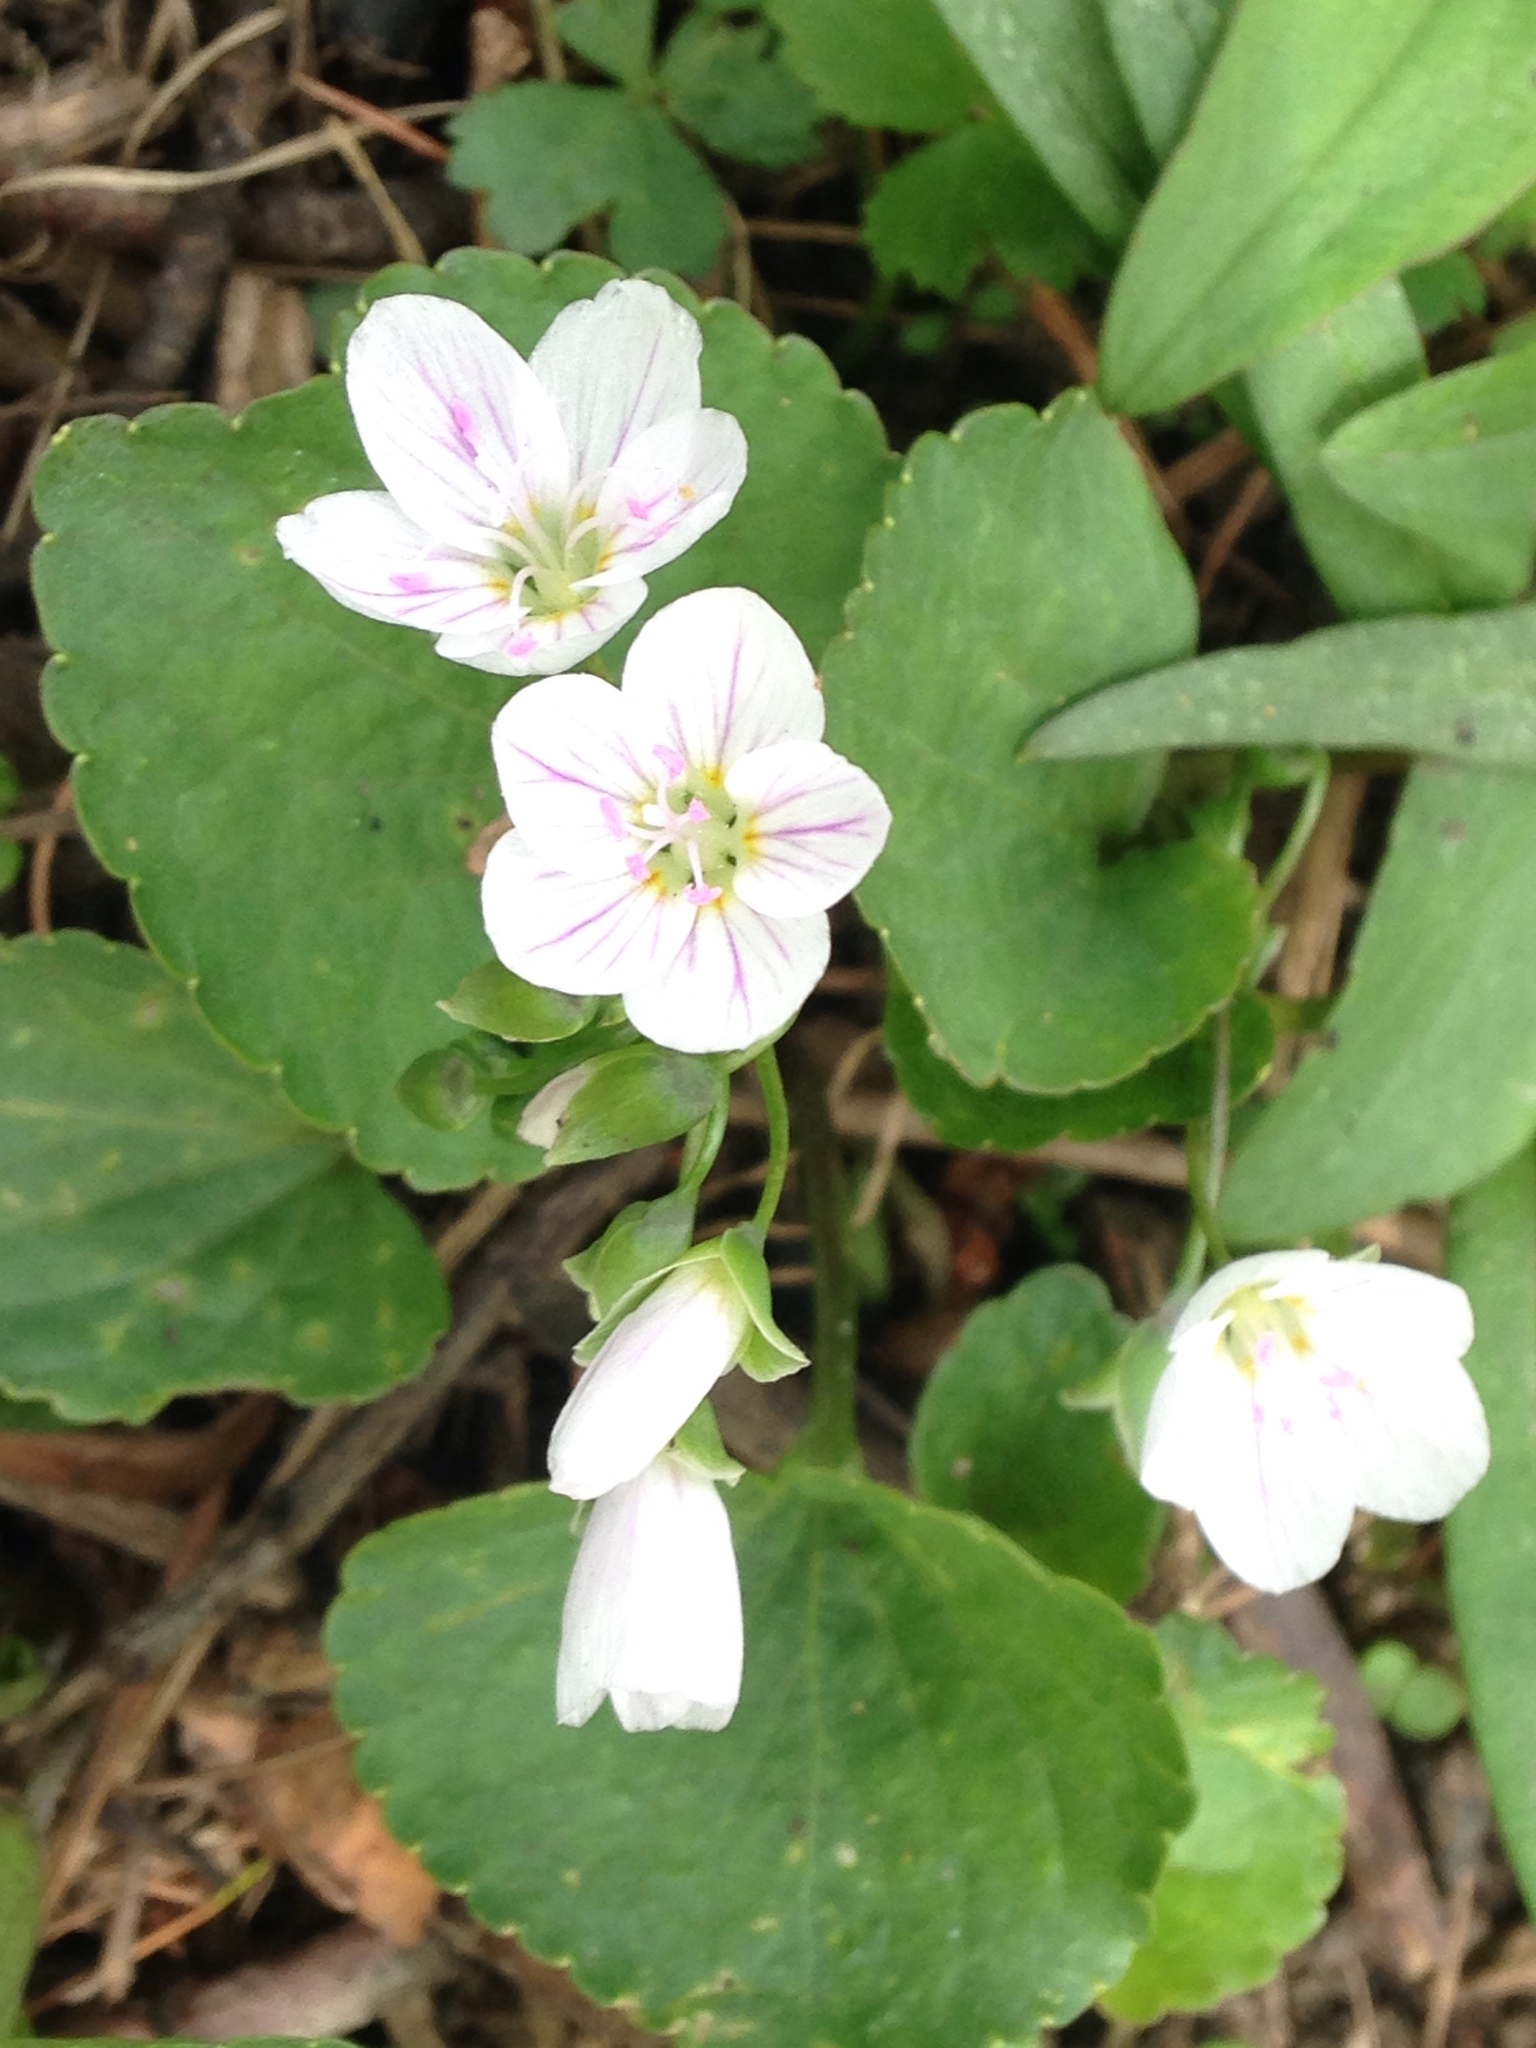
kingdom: Plantae
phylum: Tracheophyta
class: Magnoliopsida
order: Caryophyllales
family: Montiaceae
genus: Claytonia
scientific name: Claytonia virginica
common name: Virginia springbeauty
